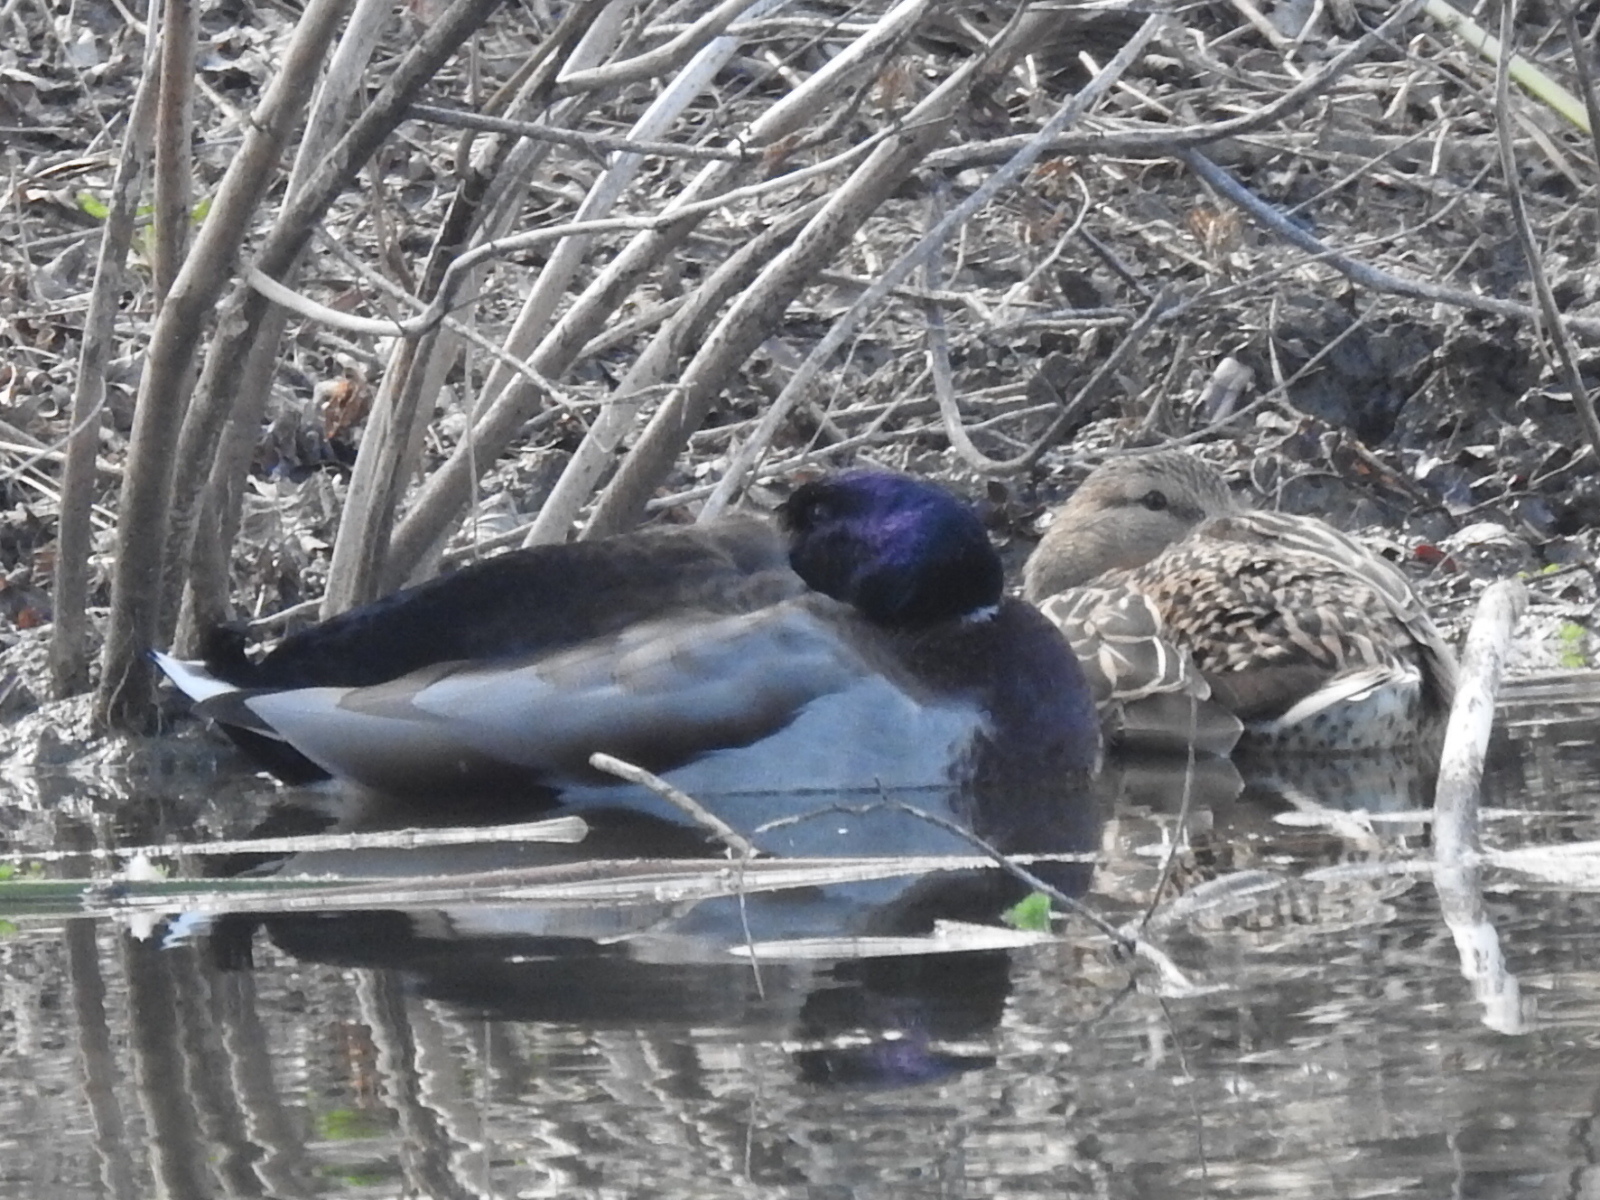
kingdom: Animalia
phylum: Chordata
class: Aves
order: Anseriformes
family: Anatidae
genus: Anas
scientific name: Anas platyrhynchos
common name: Mallard
